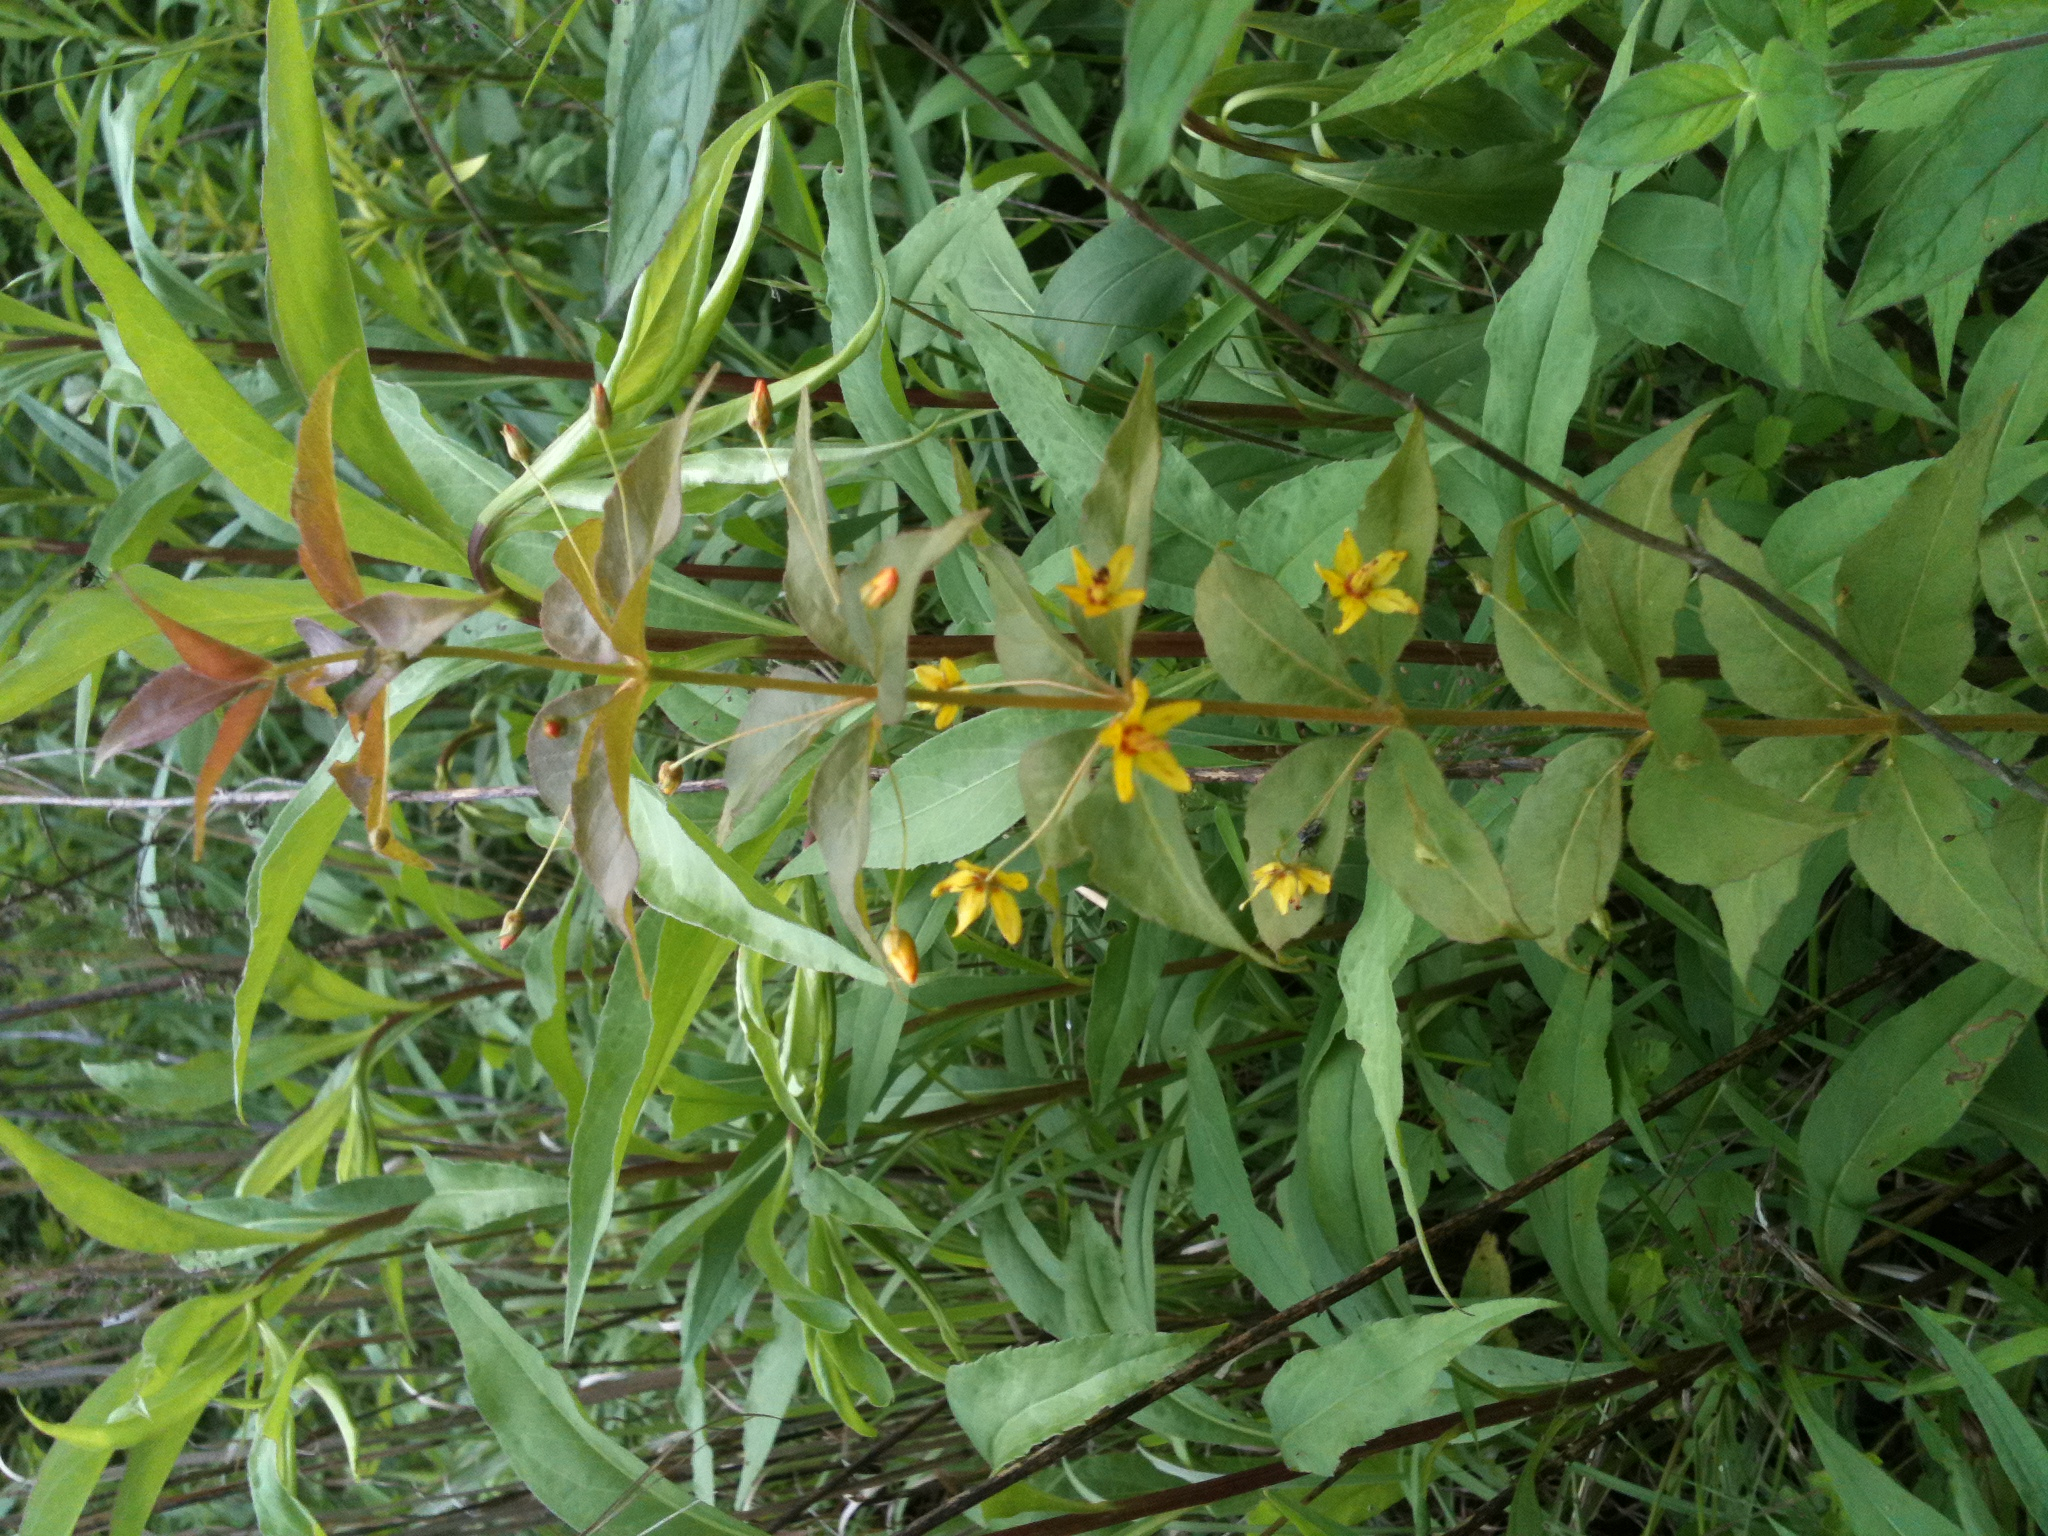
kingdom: Plantae
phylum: Tracheophyta
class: Magnoliopsida
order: Ericales
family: Primulaceae
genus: Lysimachia
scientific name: Lysimachia quadrifolia
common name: Whorled loosestrife
